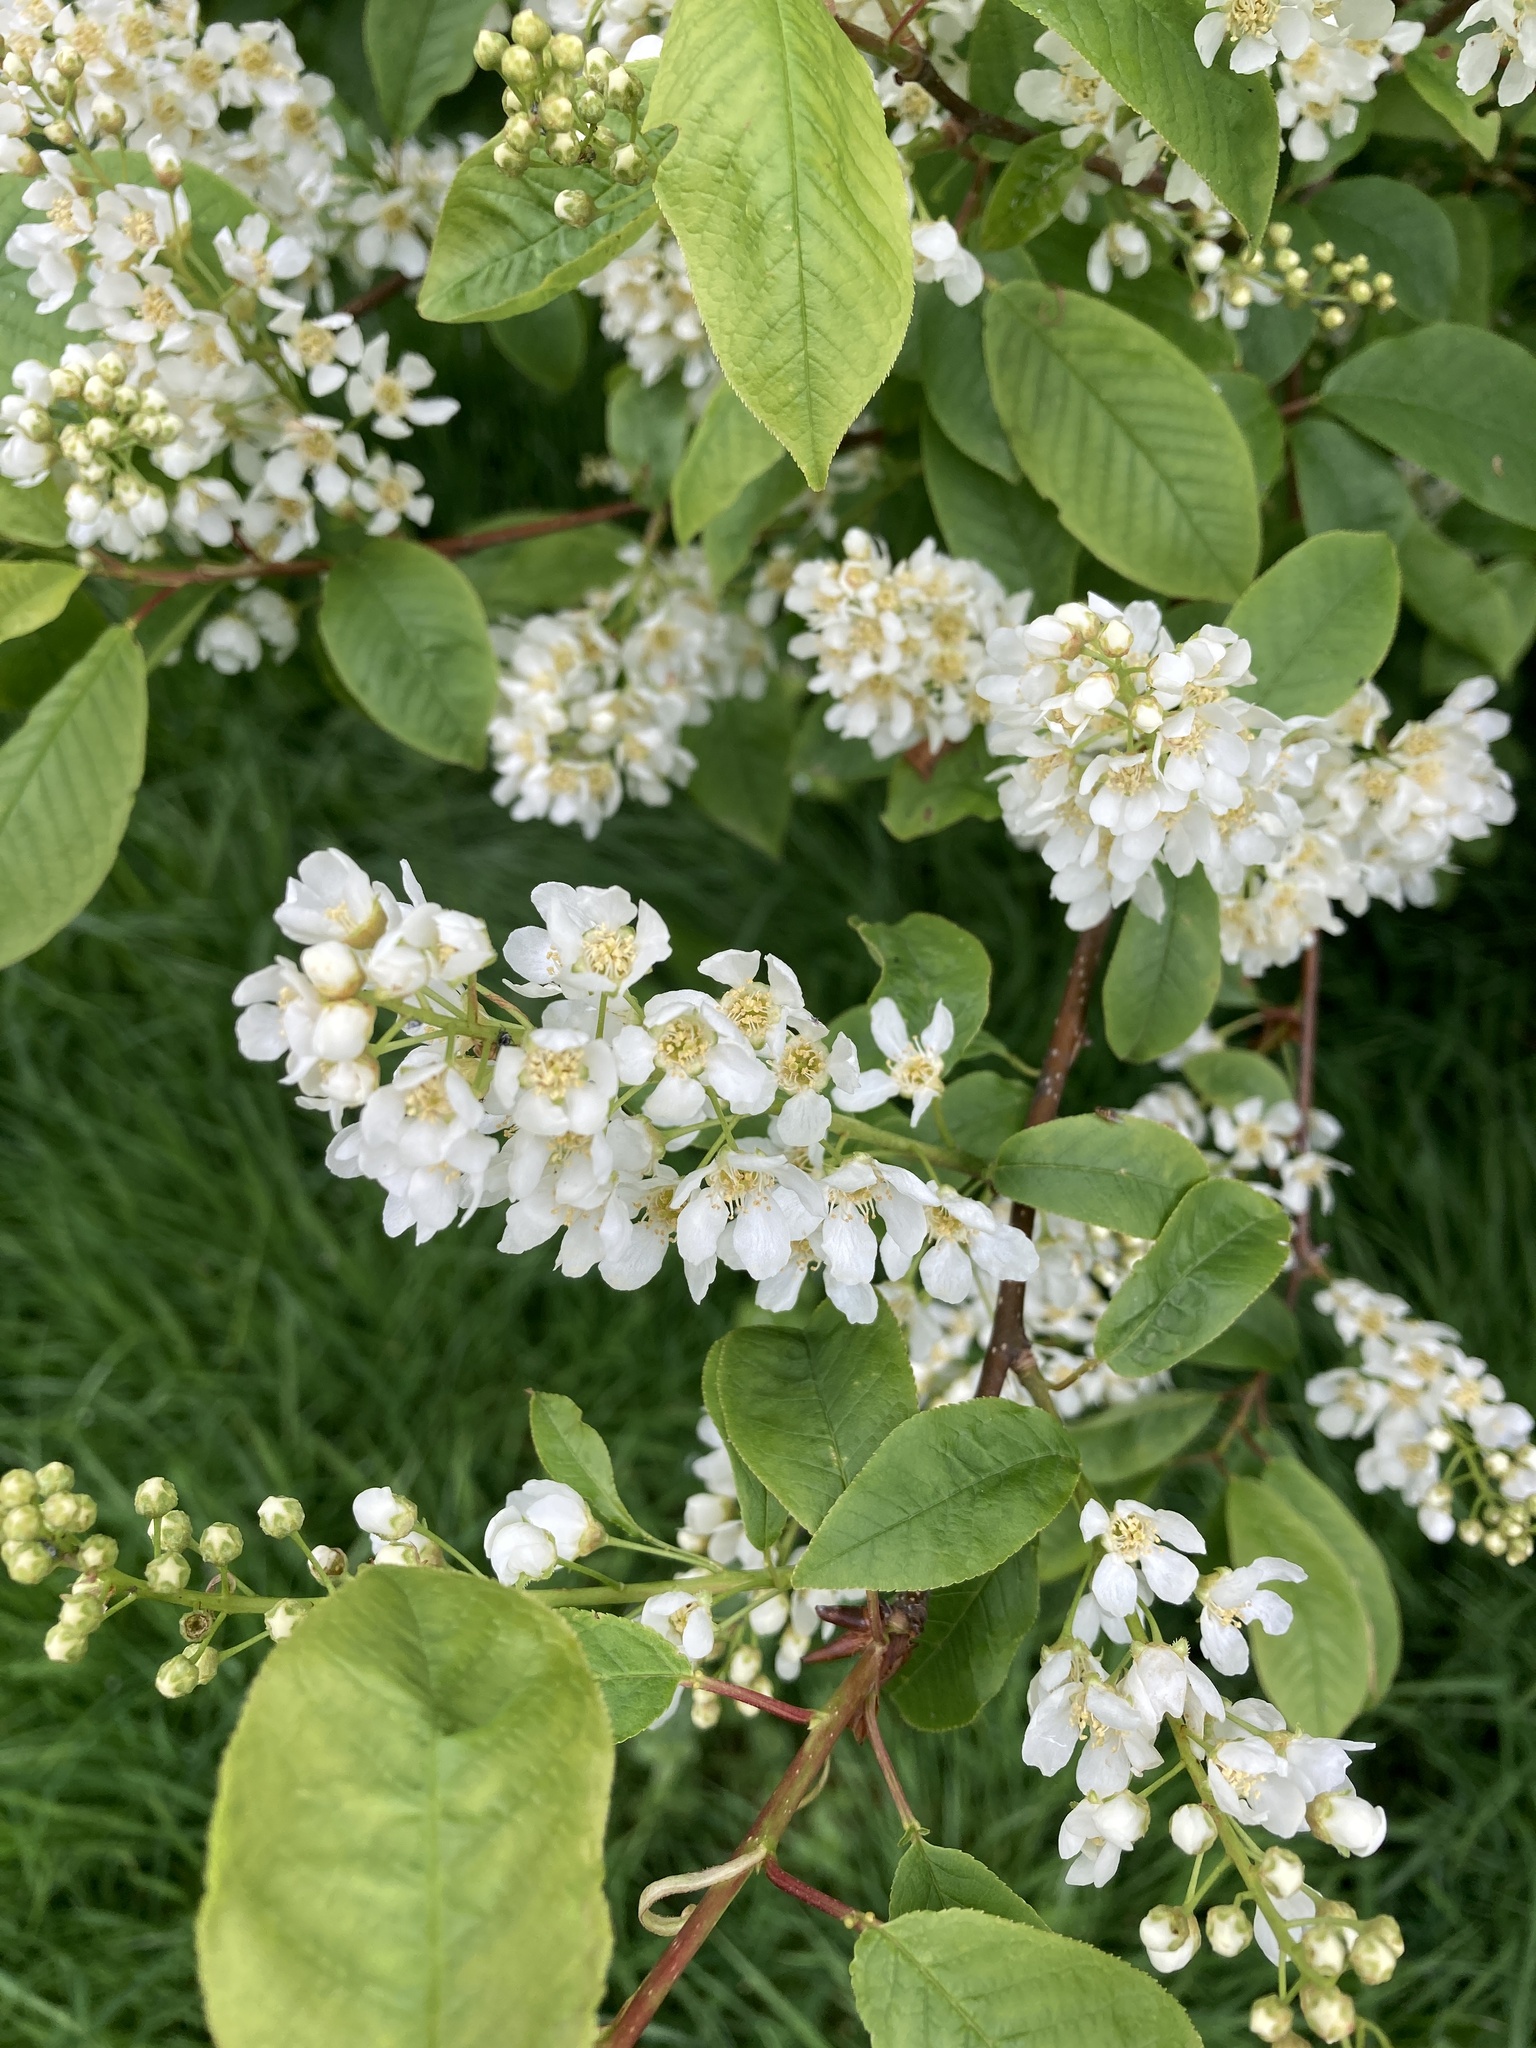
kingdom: Plantae
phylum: Tracheophyta
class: Magnoliopsida
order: Rosales
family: Rosaceae
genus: Prunus
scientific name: Prunus padus
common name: Bird cherry
